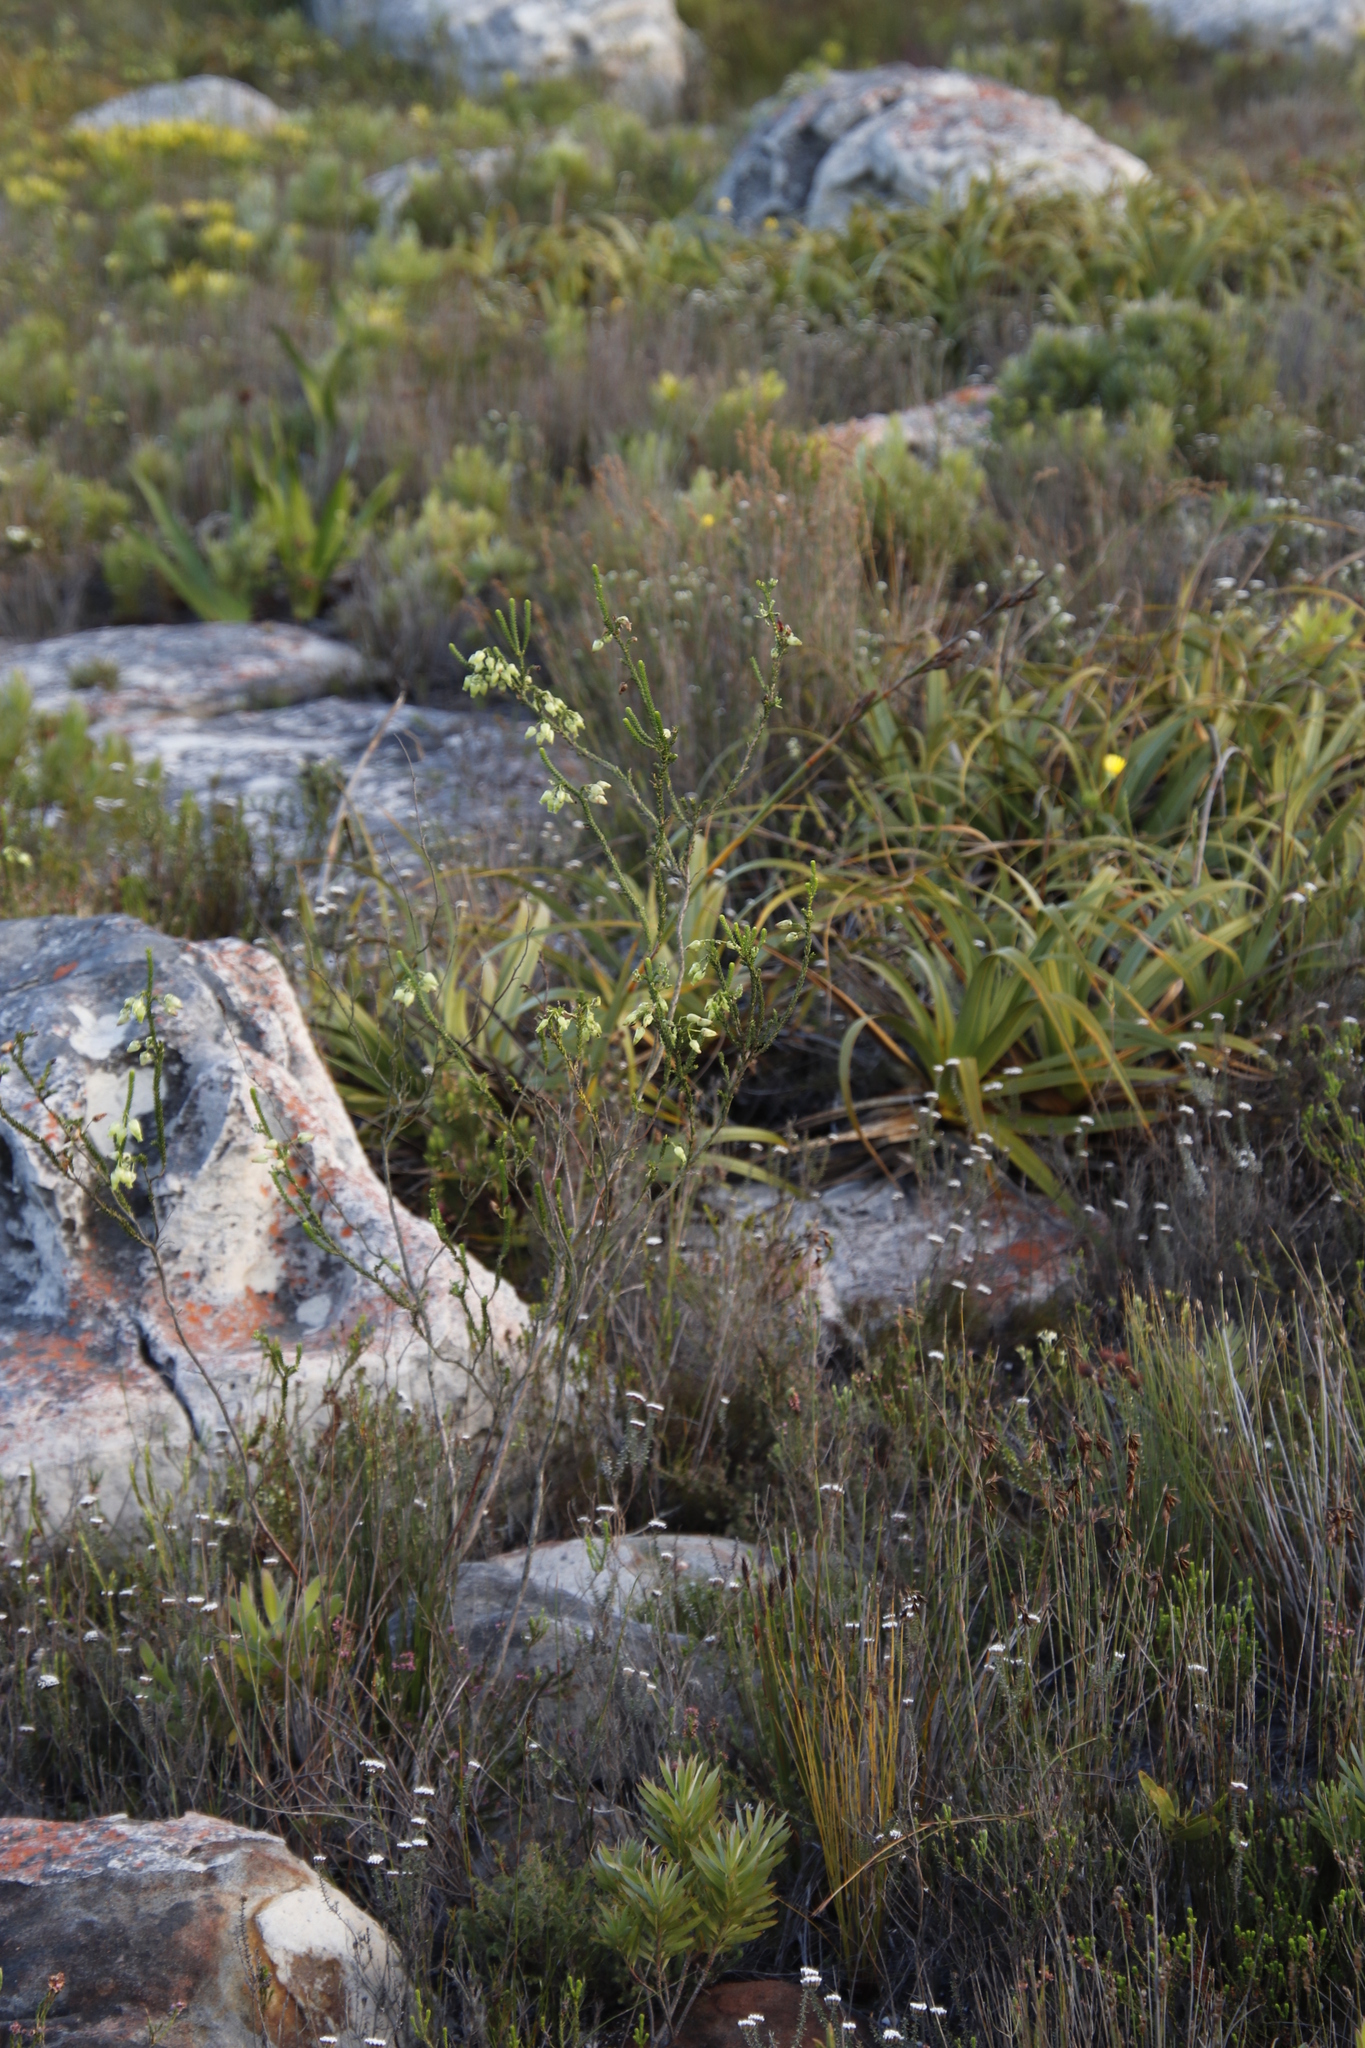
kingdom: Plantae
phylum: Tracheophyta
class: Magnoliopsida
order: Ericales
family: Ericaceae
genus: Erica
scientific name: Erica urna-viridis
